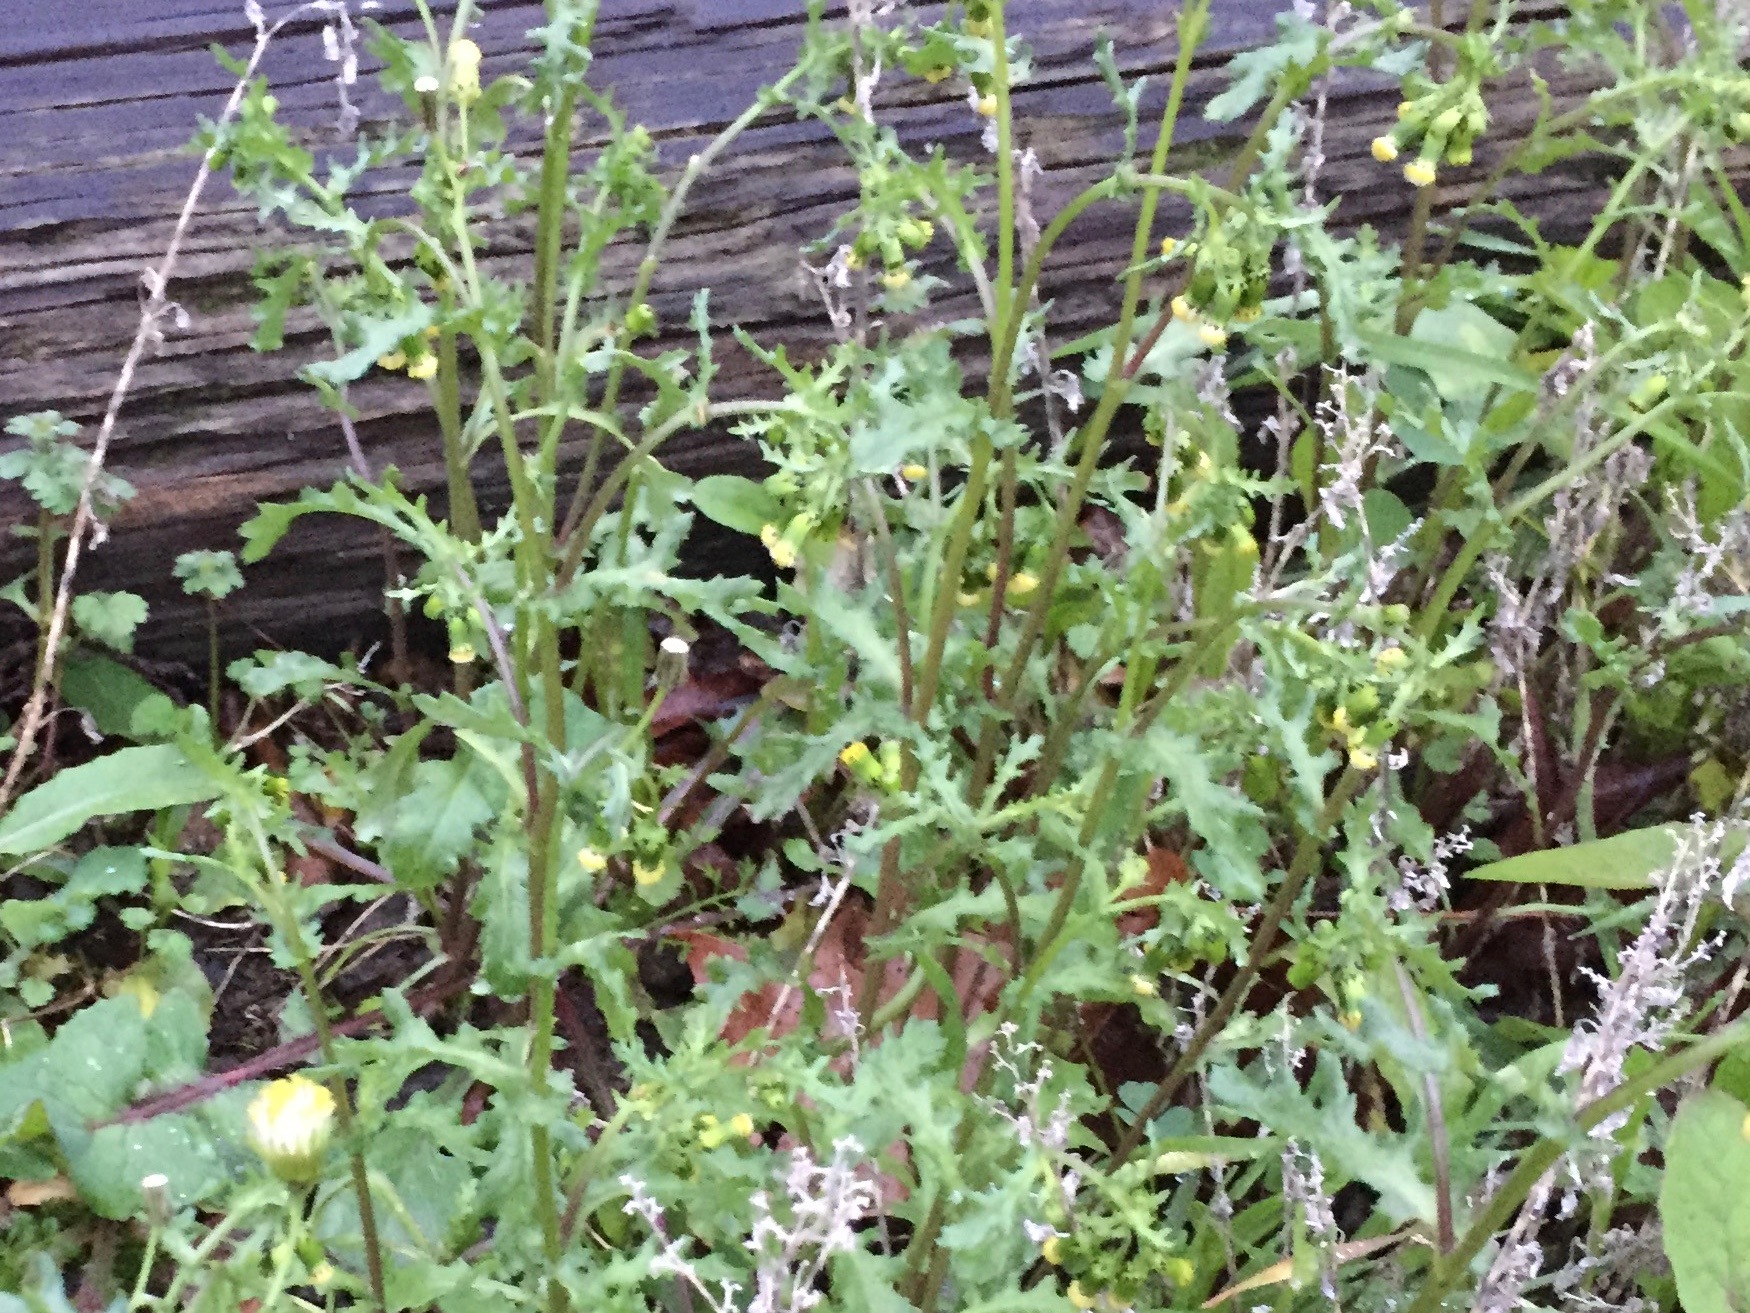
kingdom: Plantae
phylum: Tracheophyta
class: Magnoliopsida
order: Asterales
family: Asteraceae
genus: Senecio
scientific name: Senecio vulgaris
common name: Old-man-in-the-spring
